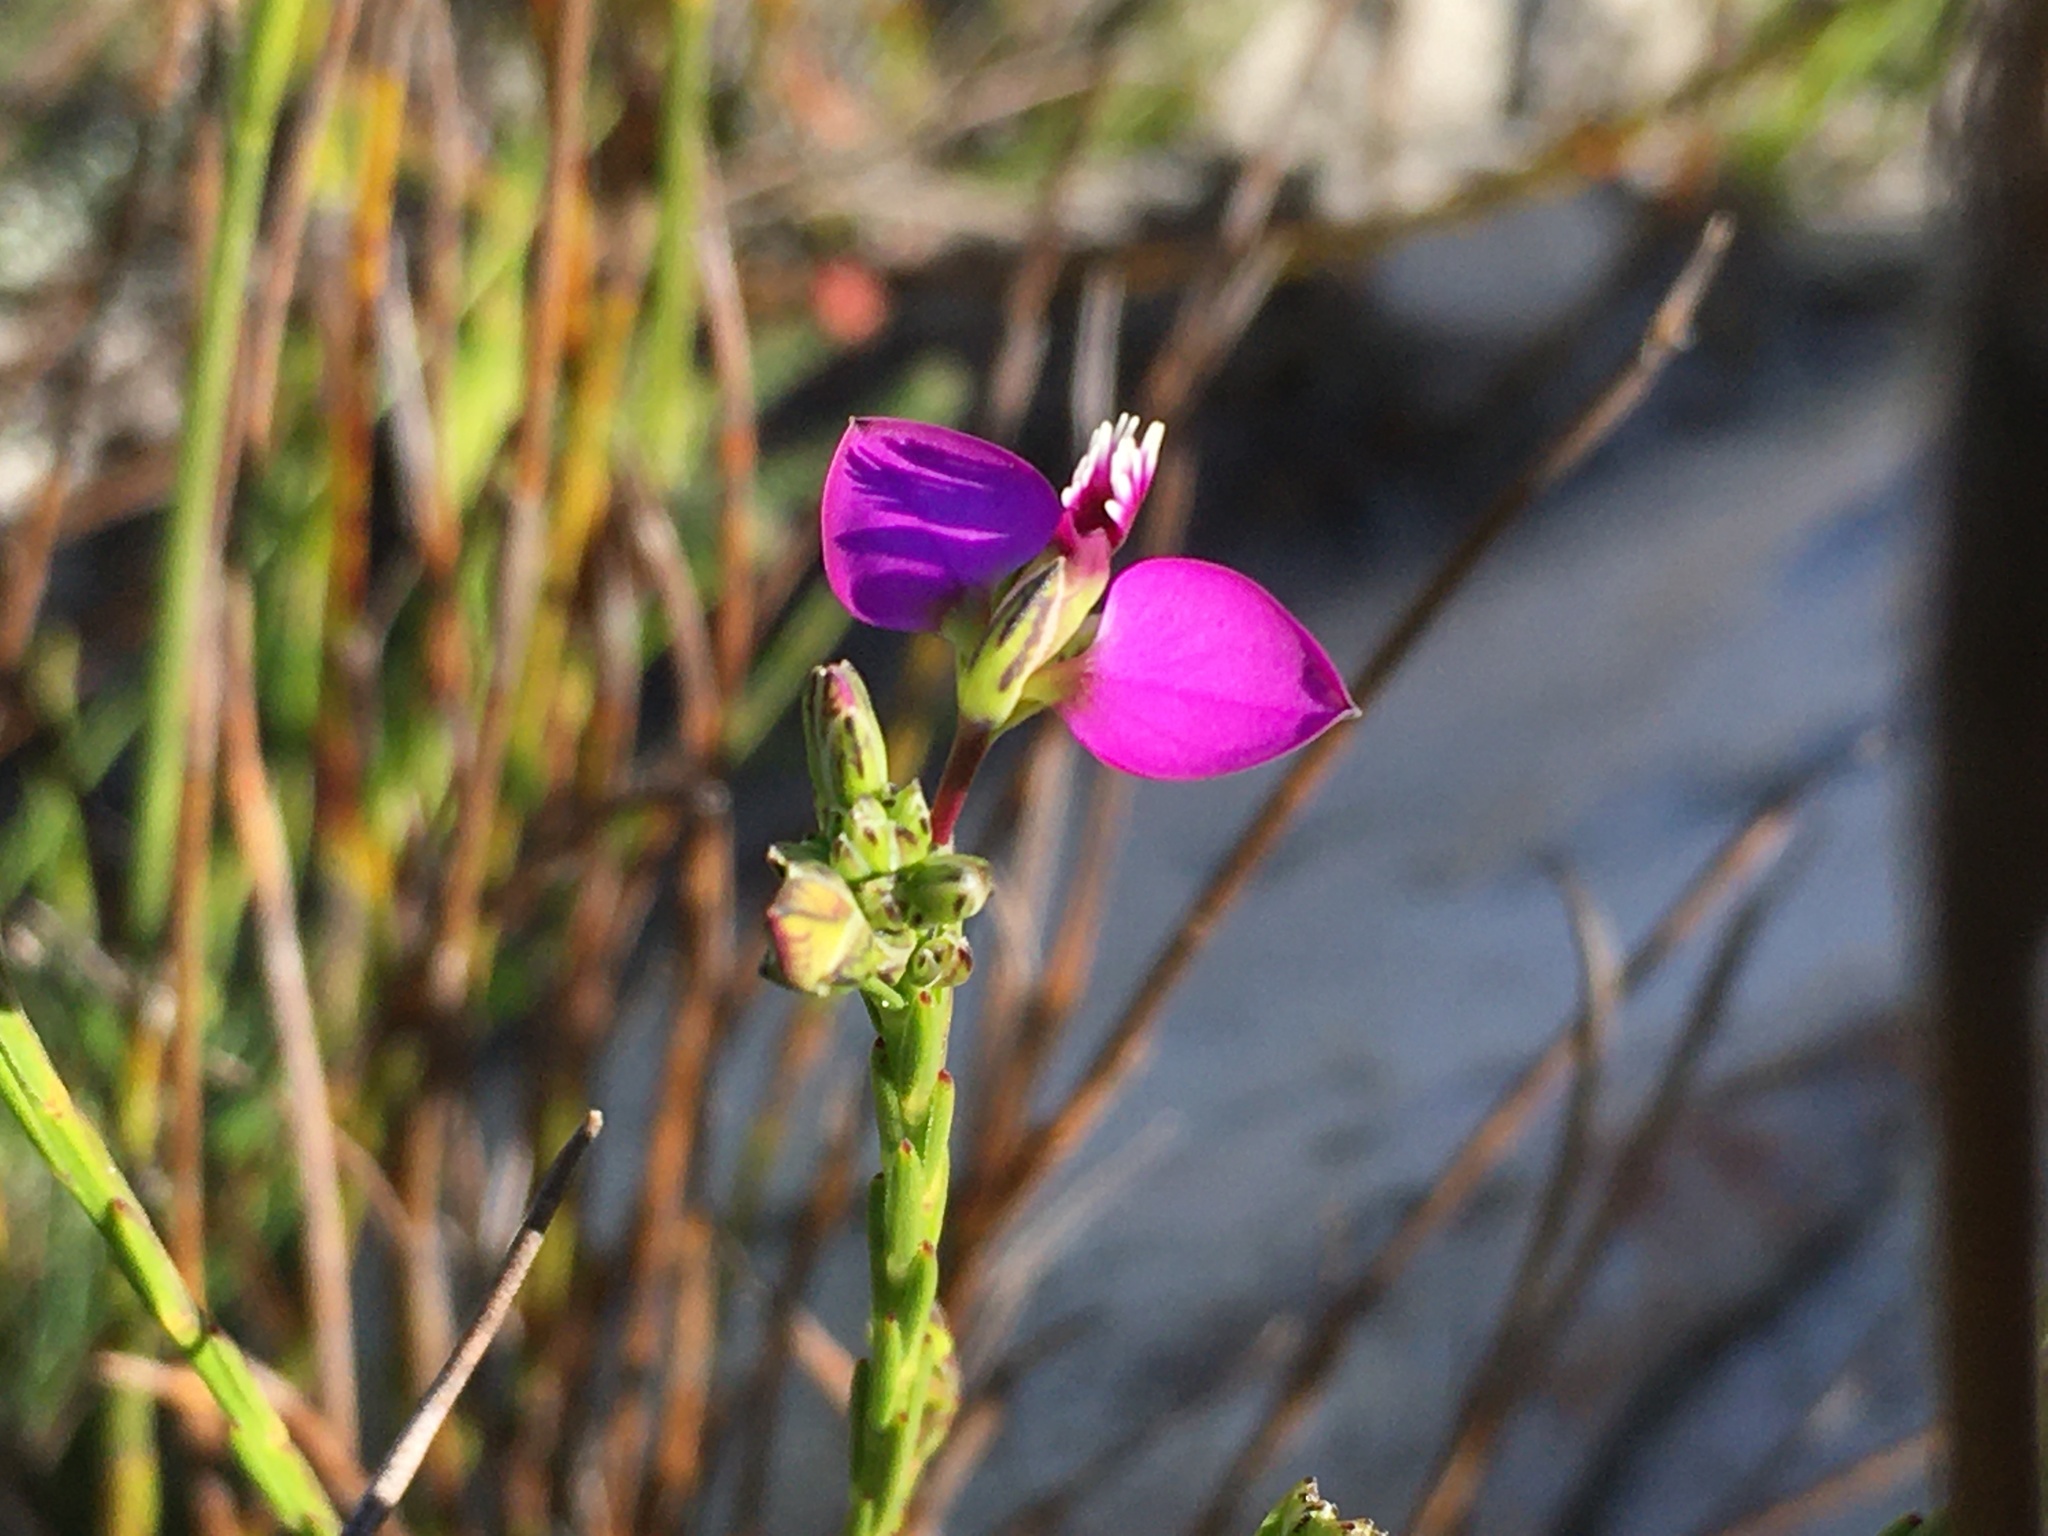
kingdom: Plantae
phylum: Tracheophyta
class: Magnoliopsida
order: Fabales
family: Polygalaceae
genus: Polygala
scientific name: Polygala recognita
